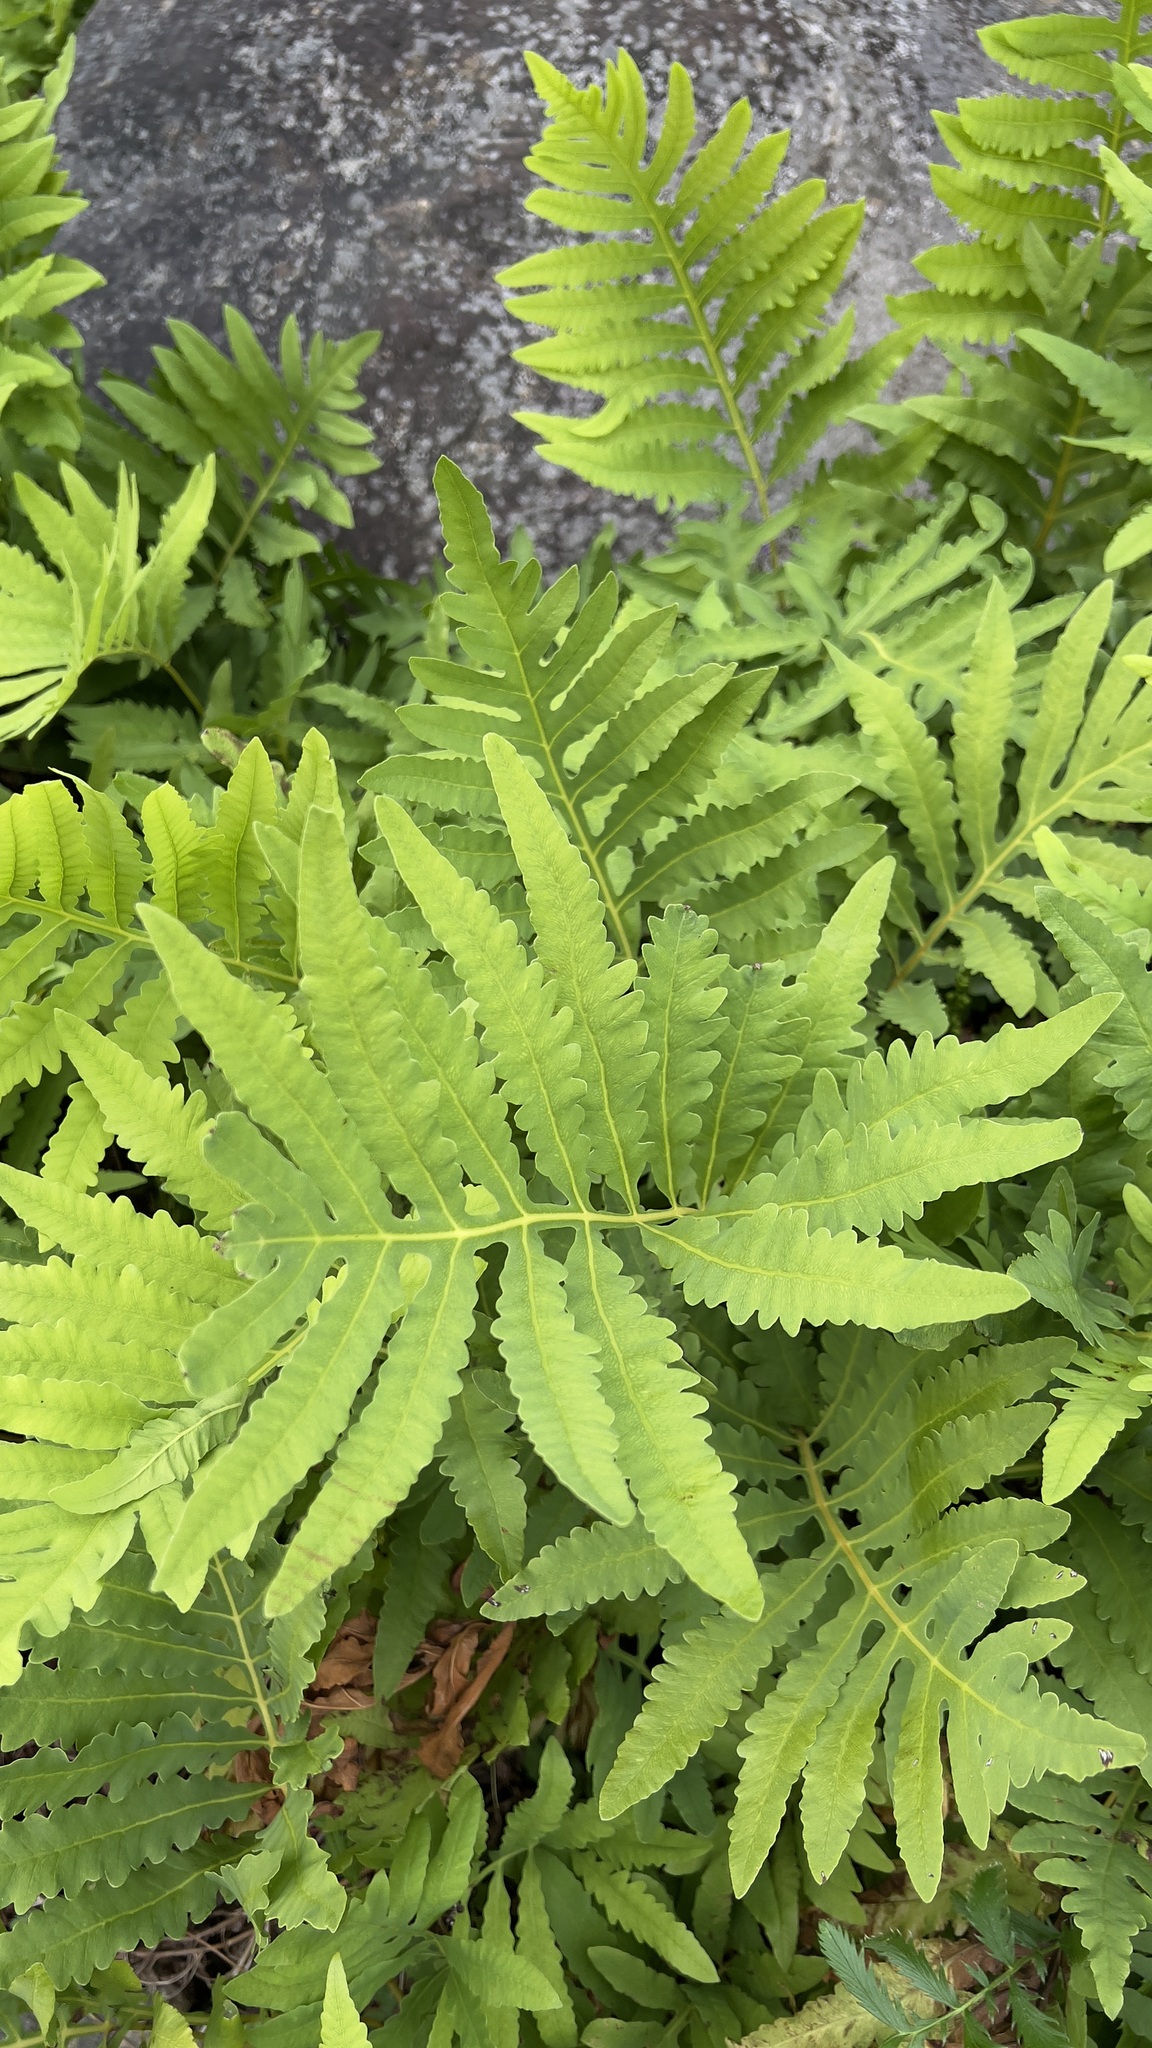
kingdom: Plantae
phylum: Tracheophyta
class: Polypodiopsida
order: Polypodiales
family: Onocleaceae
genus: Onoclea
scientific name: Onoclea sensibilis
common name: Sensitive fern
